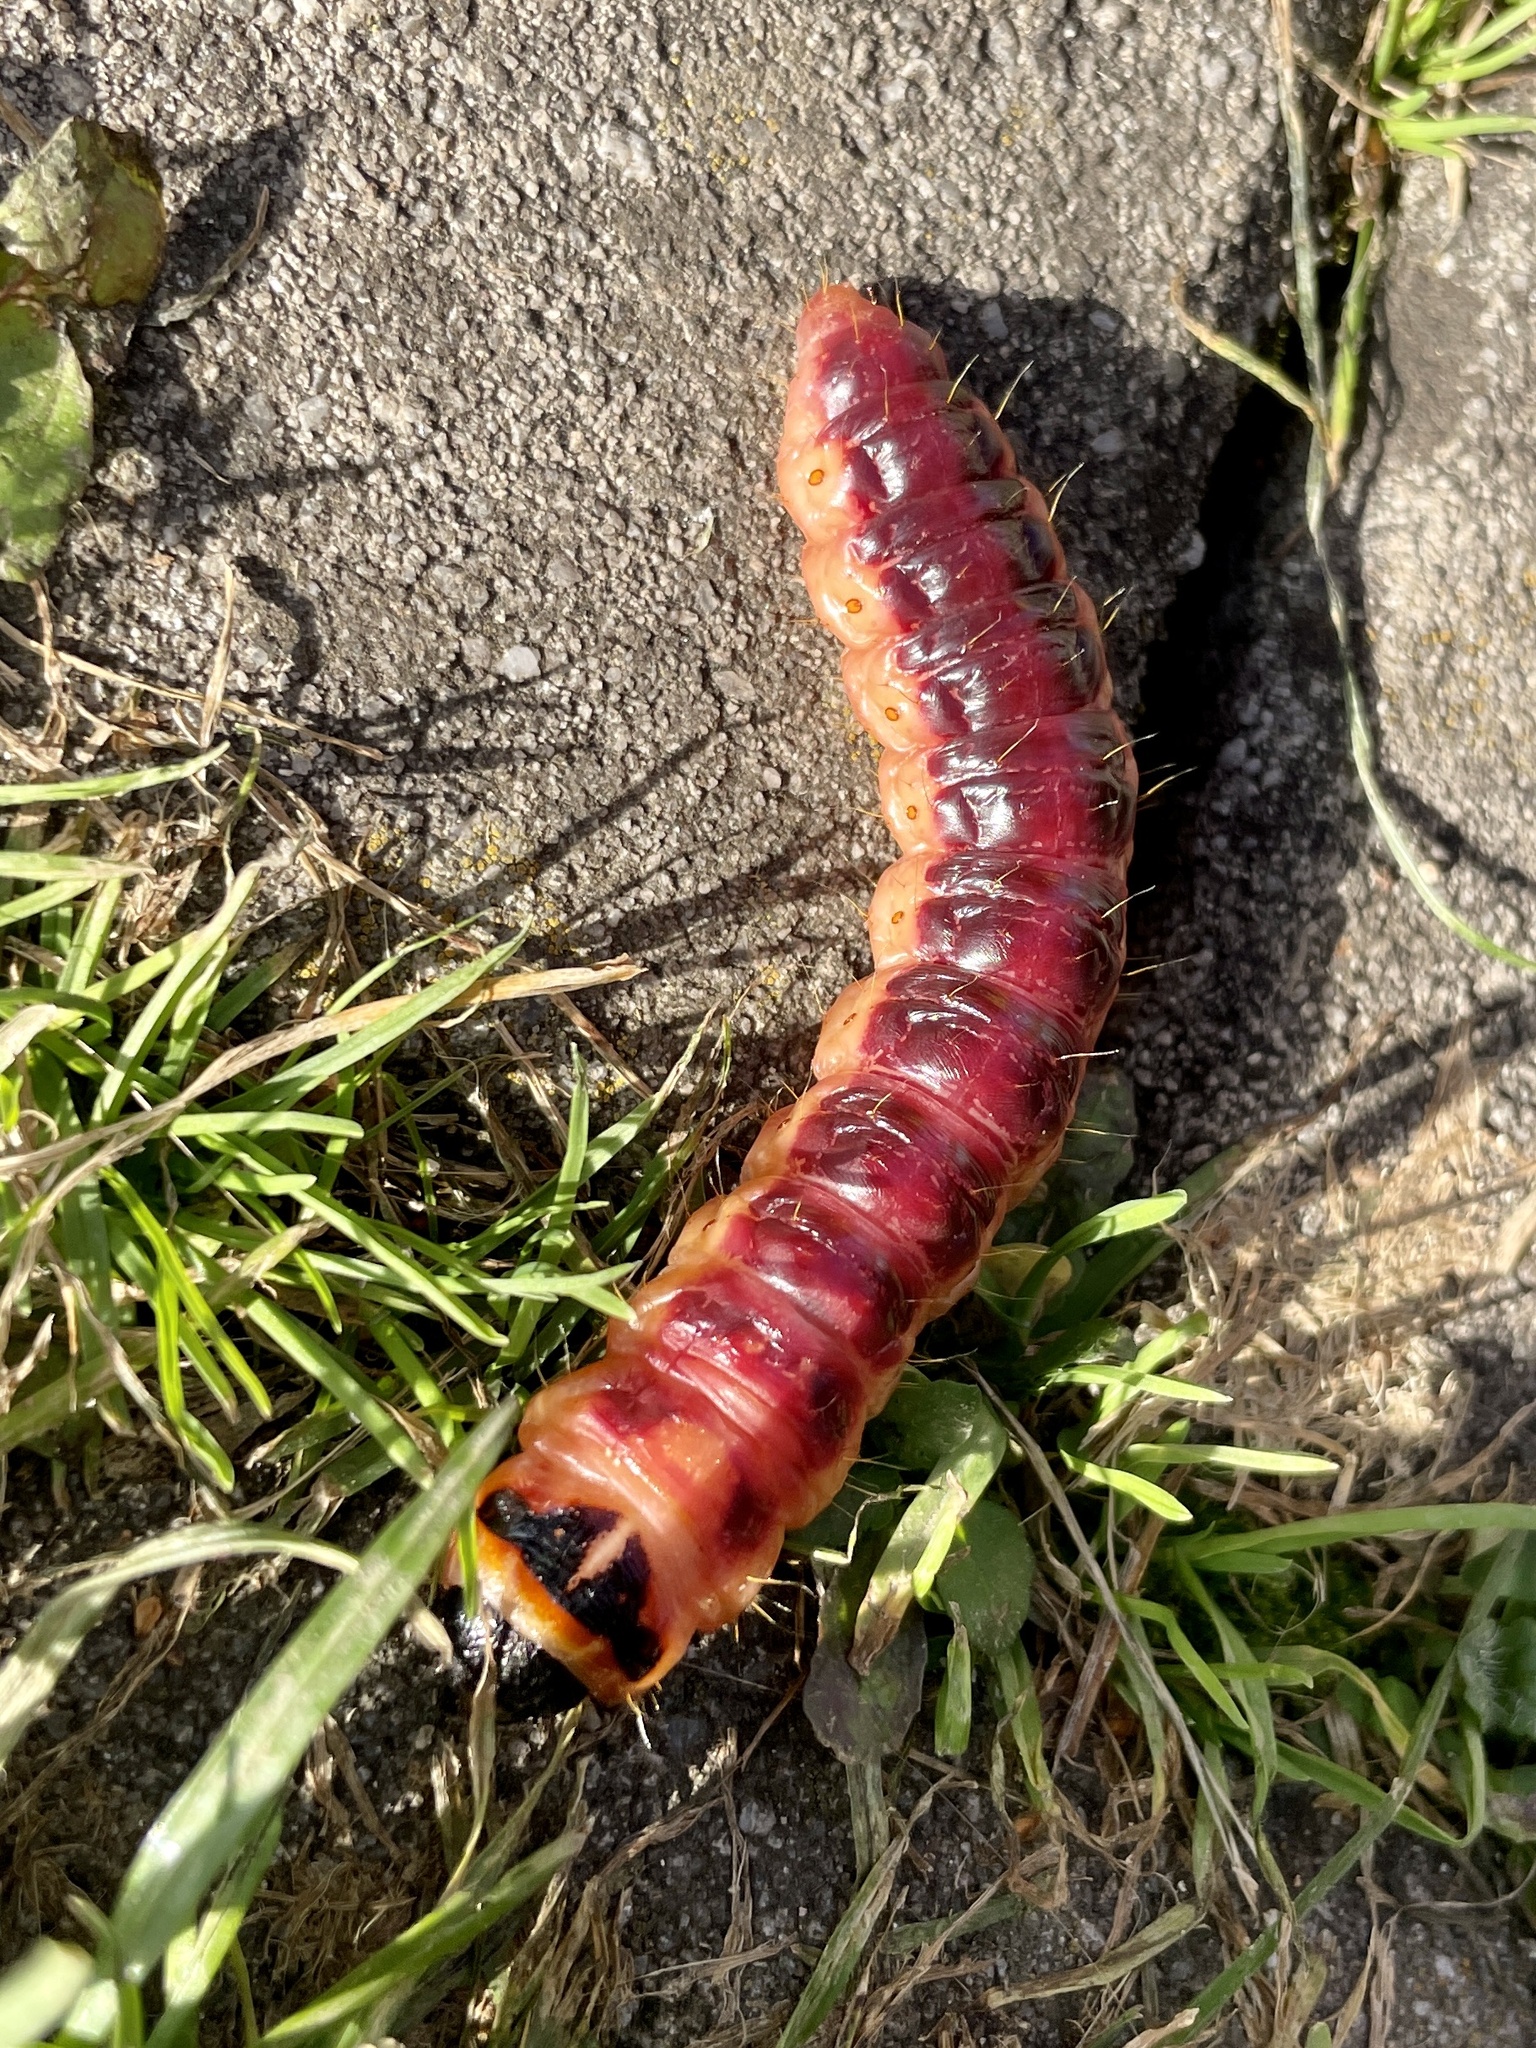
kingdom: Animalia
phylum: Arthropoda
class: Insecta
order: Lepidoptera
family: Cossidae
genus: Cossus
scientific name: Cossus cossus
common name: Goat moth
